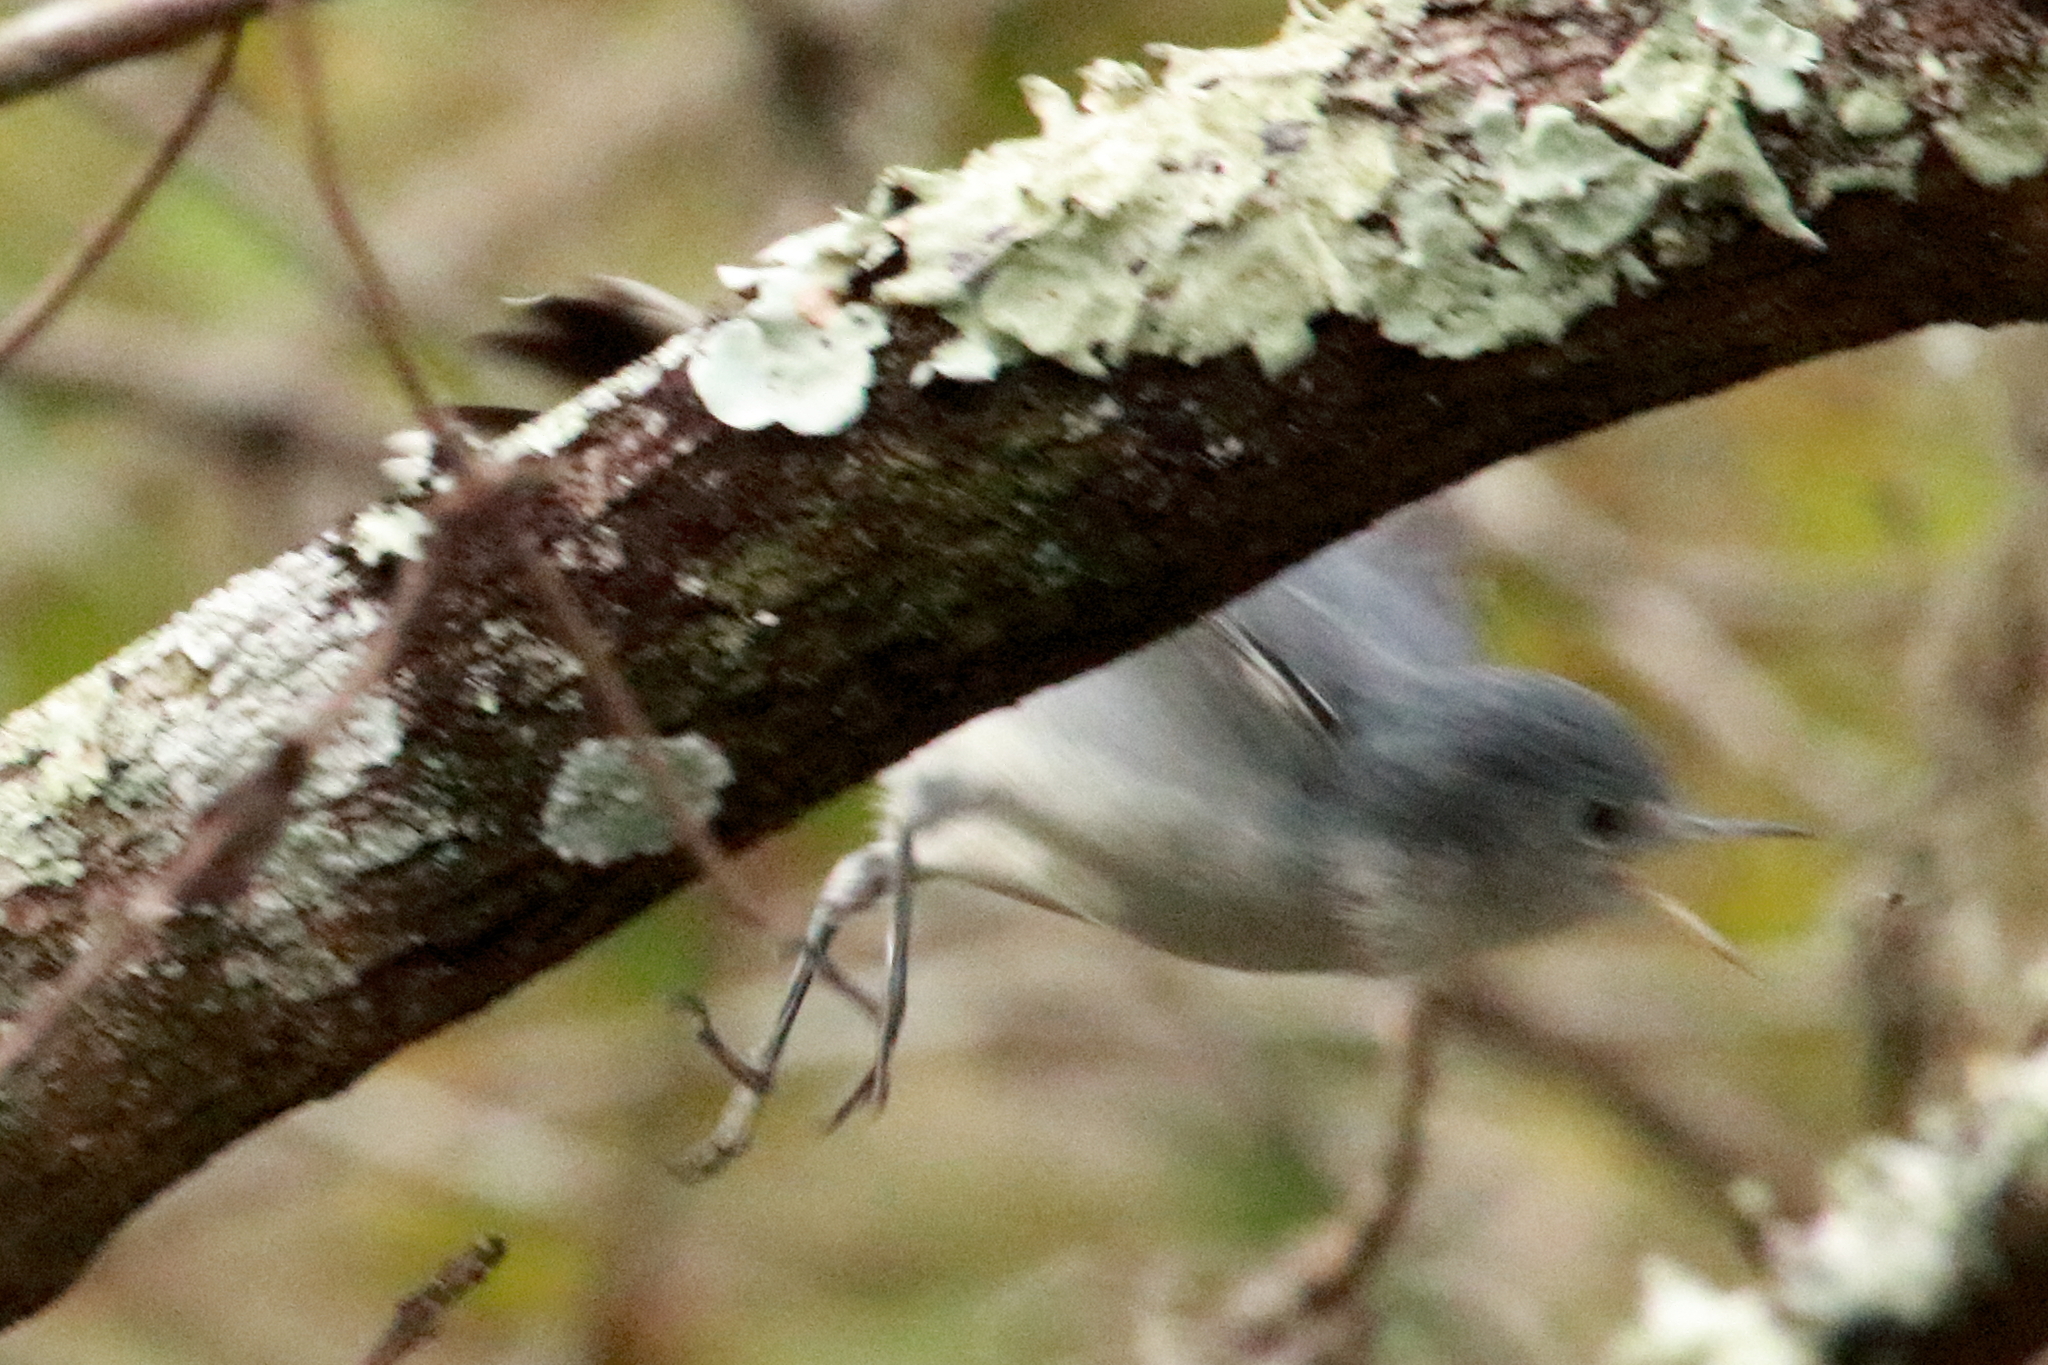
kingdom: Animalia
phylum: Chordata
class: Aves
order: Passeriformes
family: Polioptilidae
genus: Polioptila
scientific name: Polioptila caerulea
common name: Blue-gray gnatcatcher
